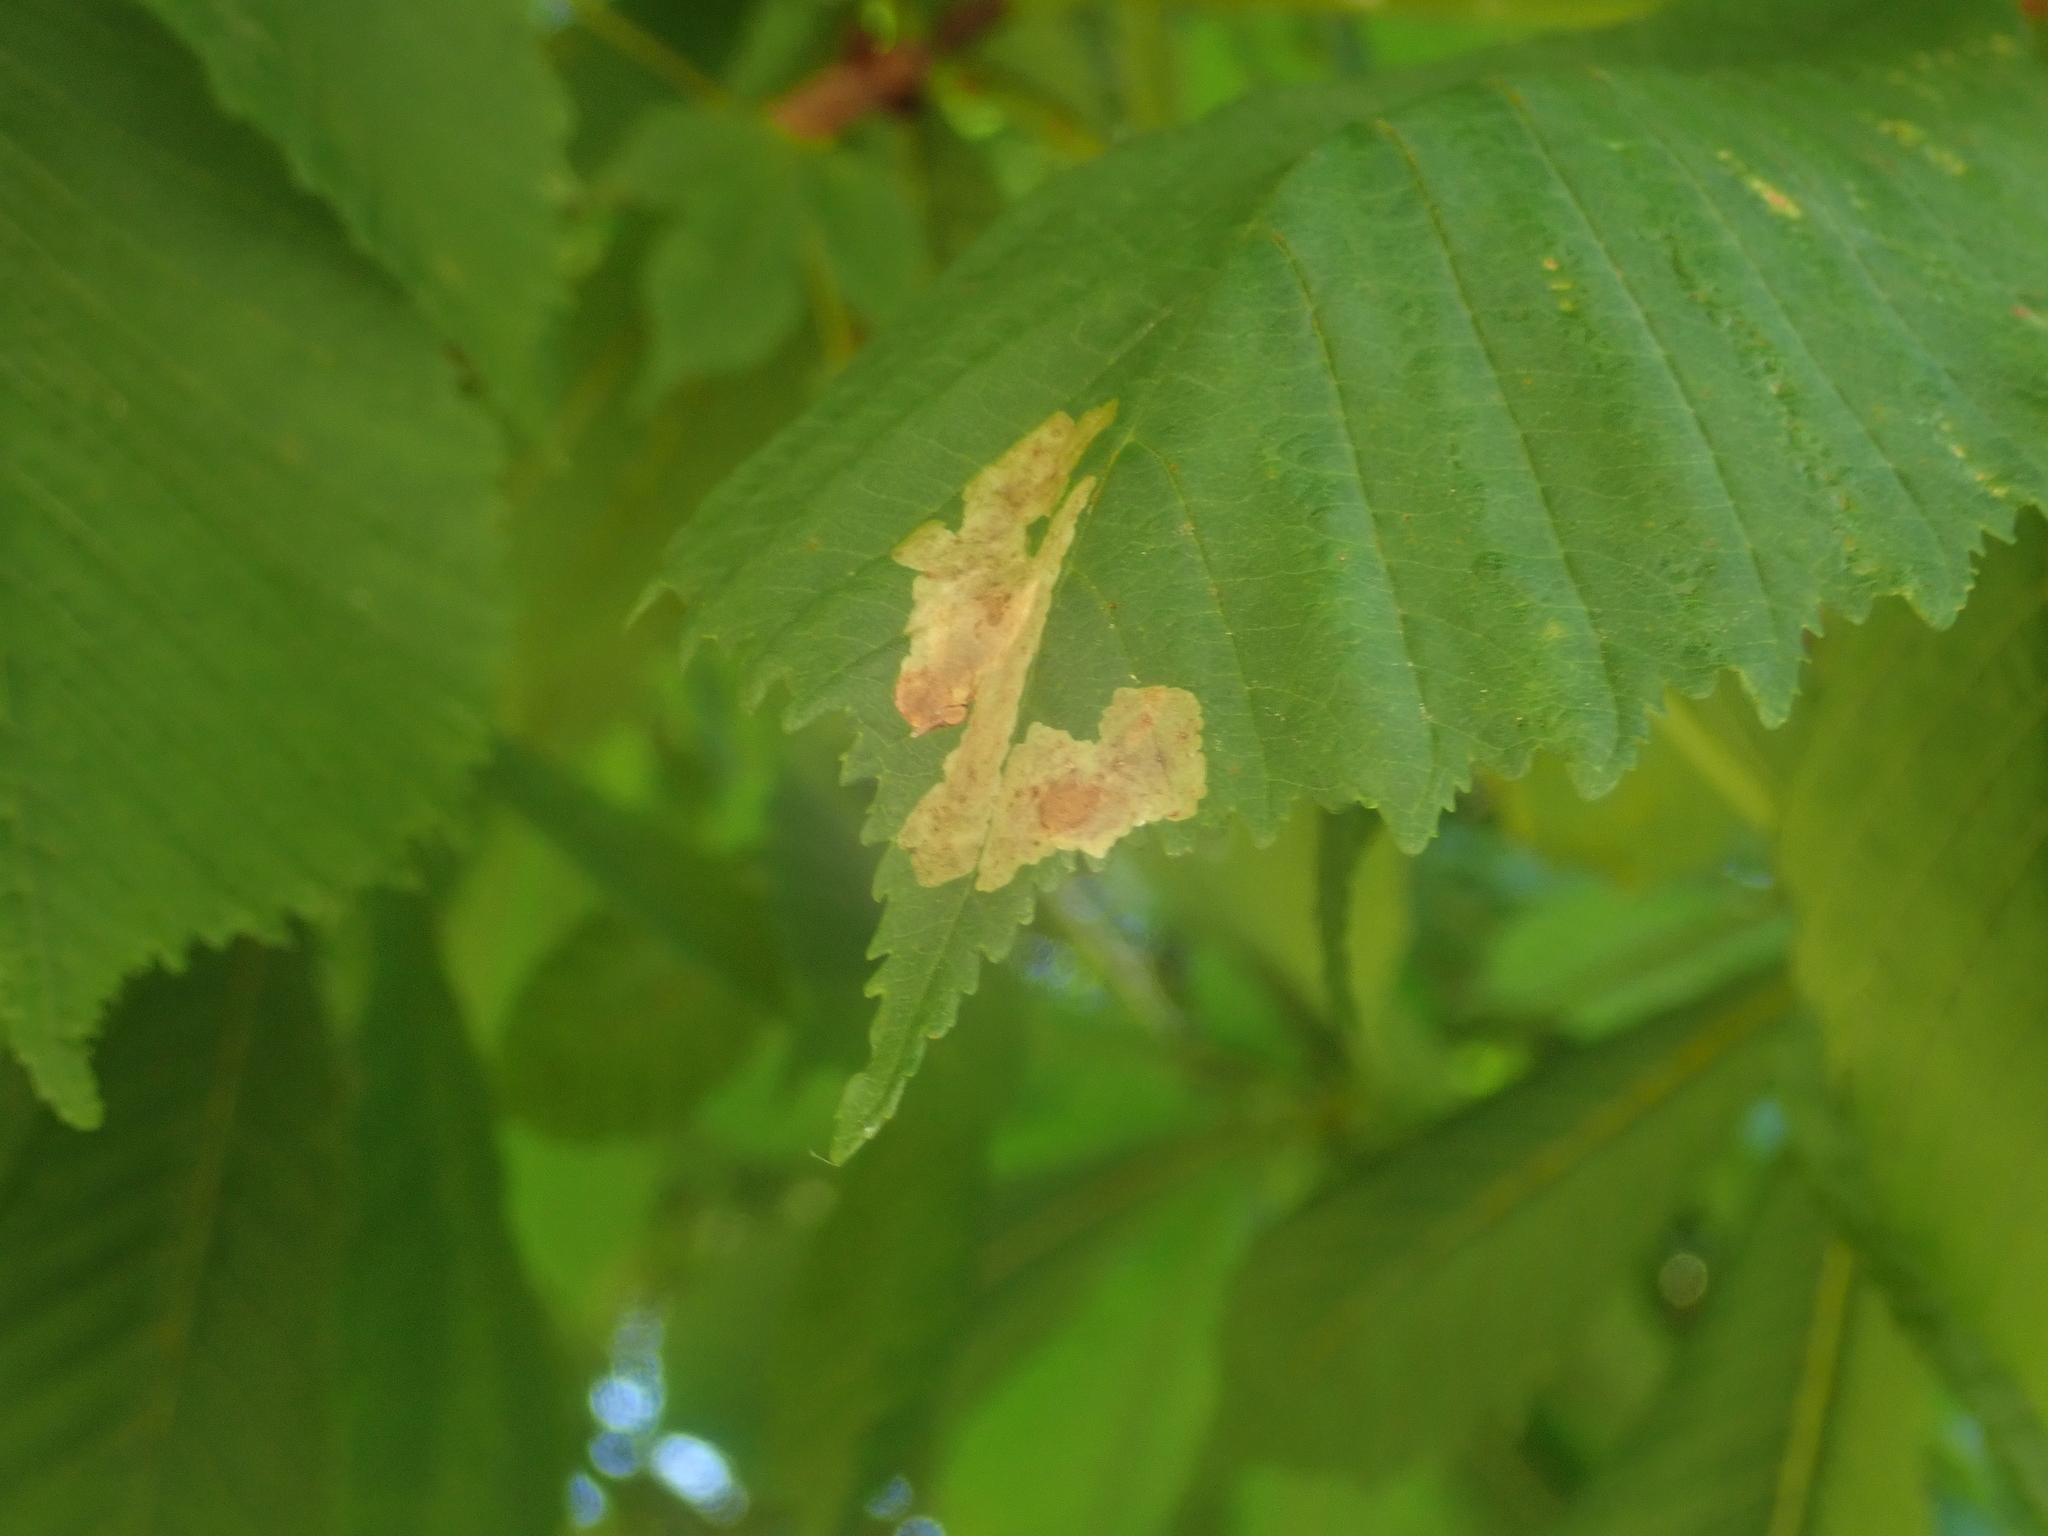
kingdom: Animalia
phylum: Arthropoda
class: Insecta
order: Lepidoptera
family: Gracillariidae
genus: Cameraria
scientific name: Cameraria ohridella
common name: Horse-chestnut leaf-miner
